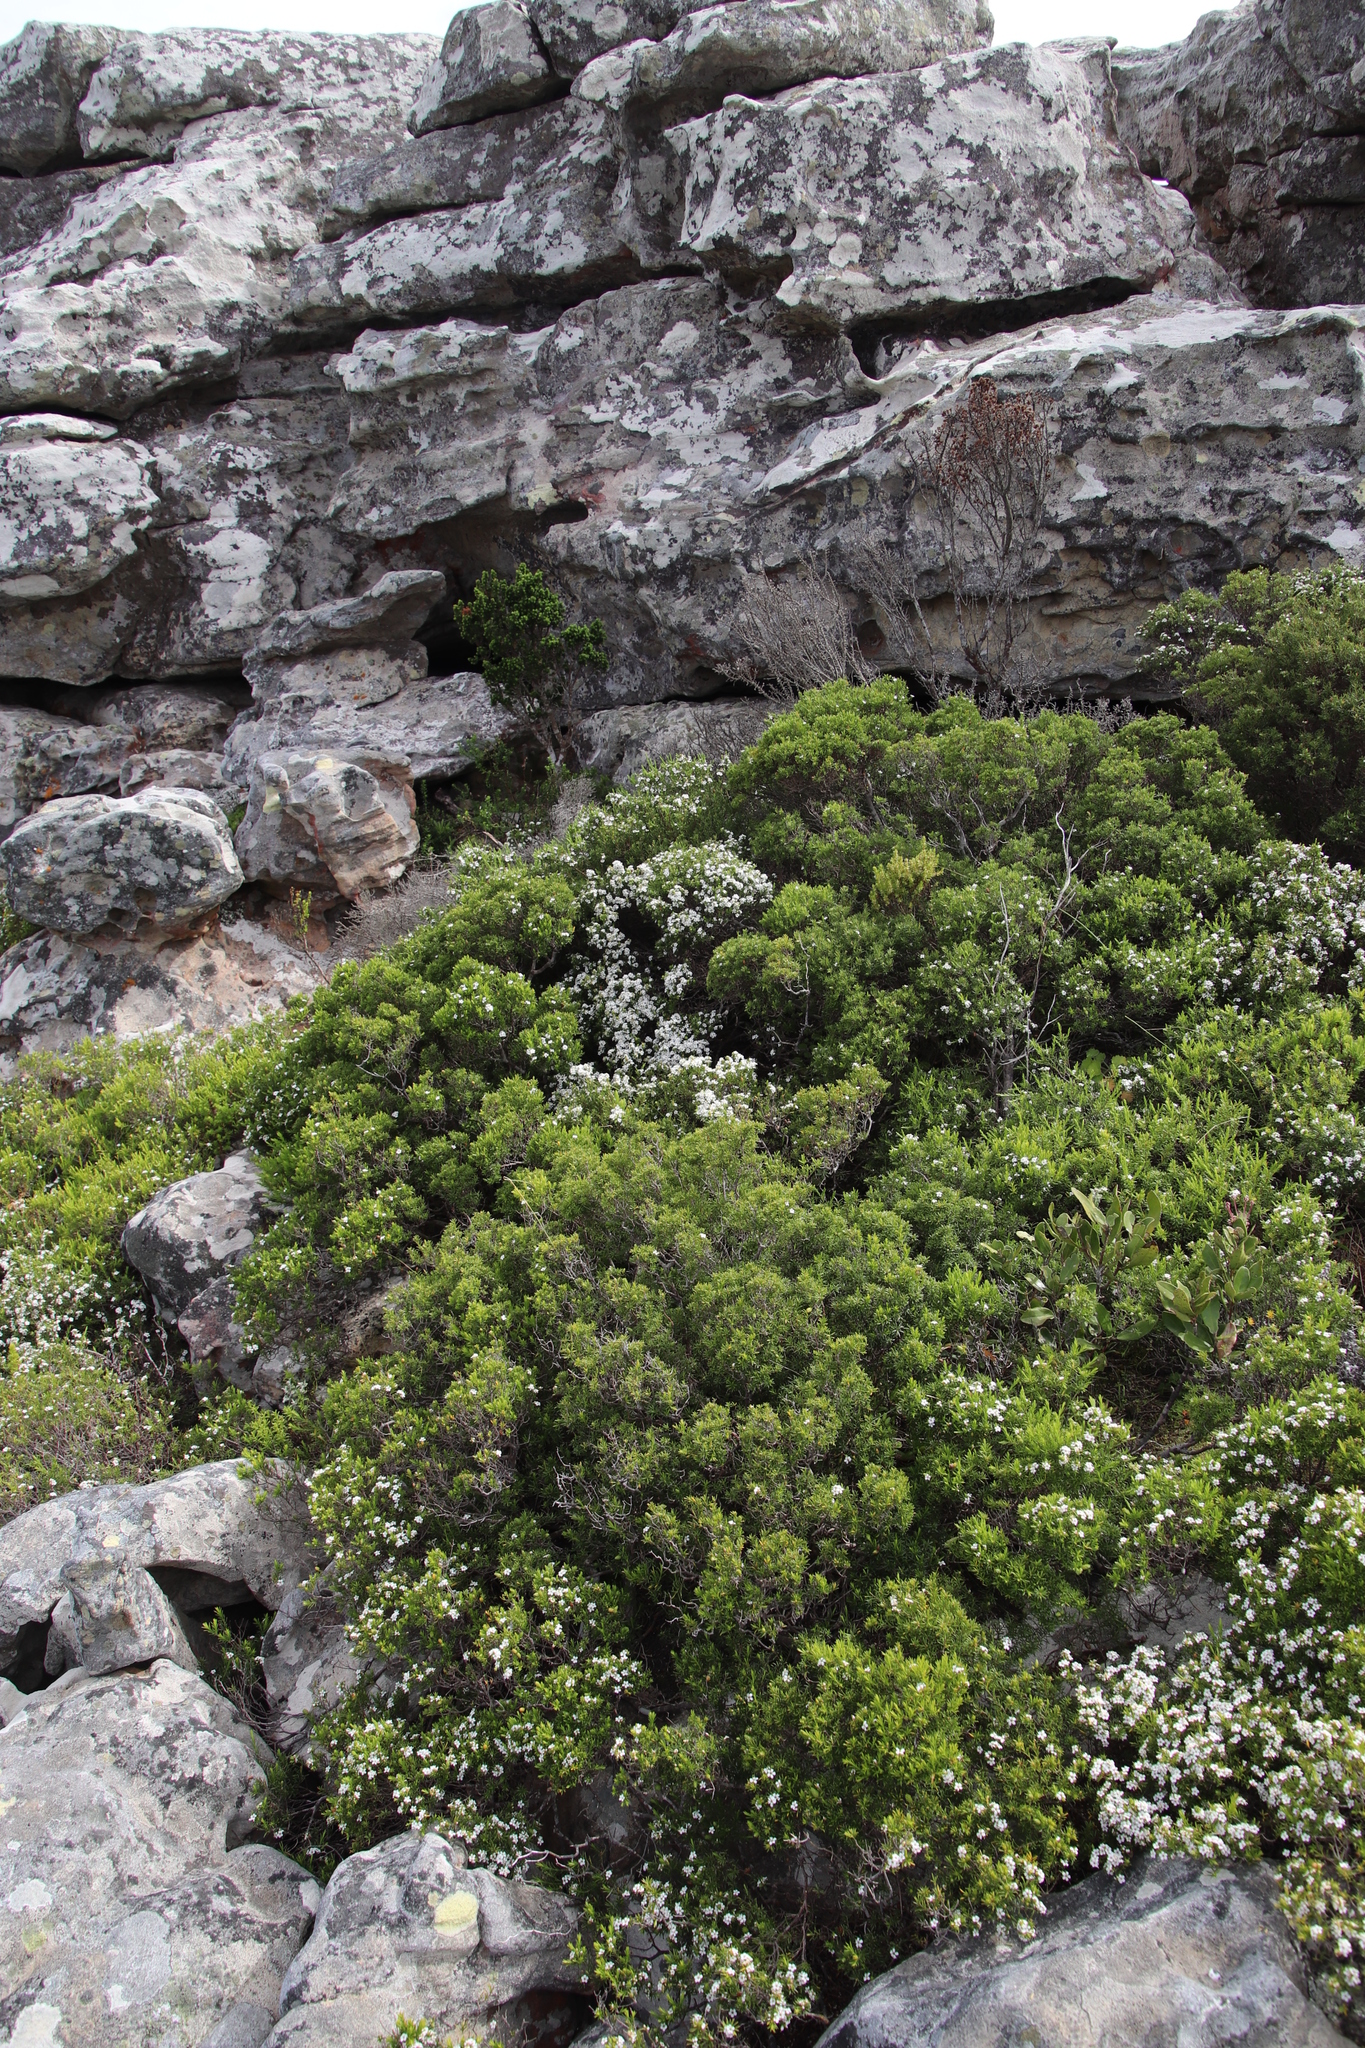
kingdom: Plantae
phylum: Tracheophyta
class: Magnoliopsida
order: Sapindales
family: Rutaceae
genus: Coleonema
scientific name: Coleonema album
